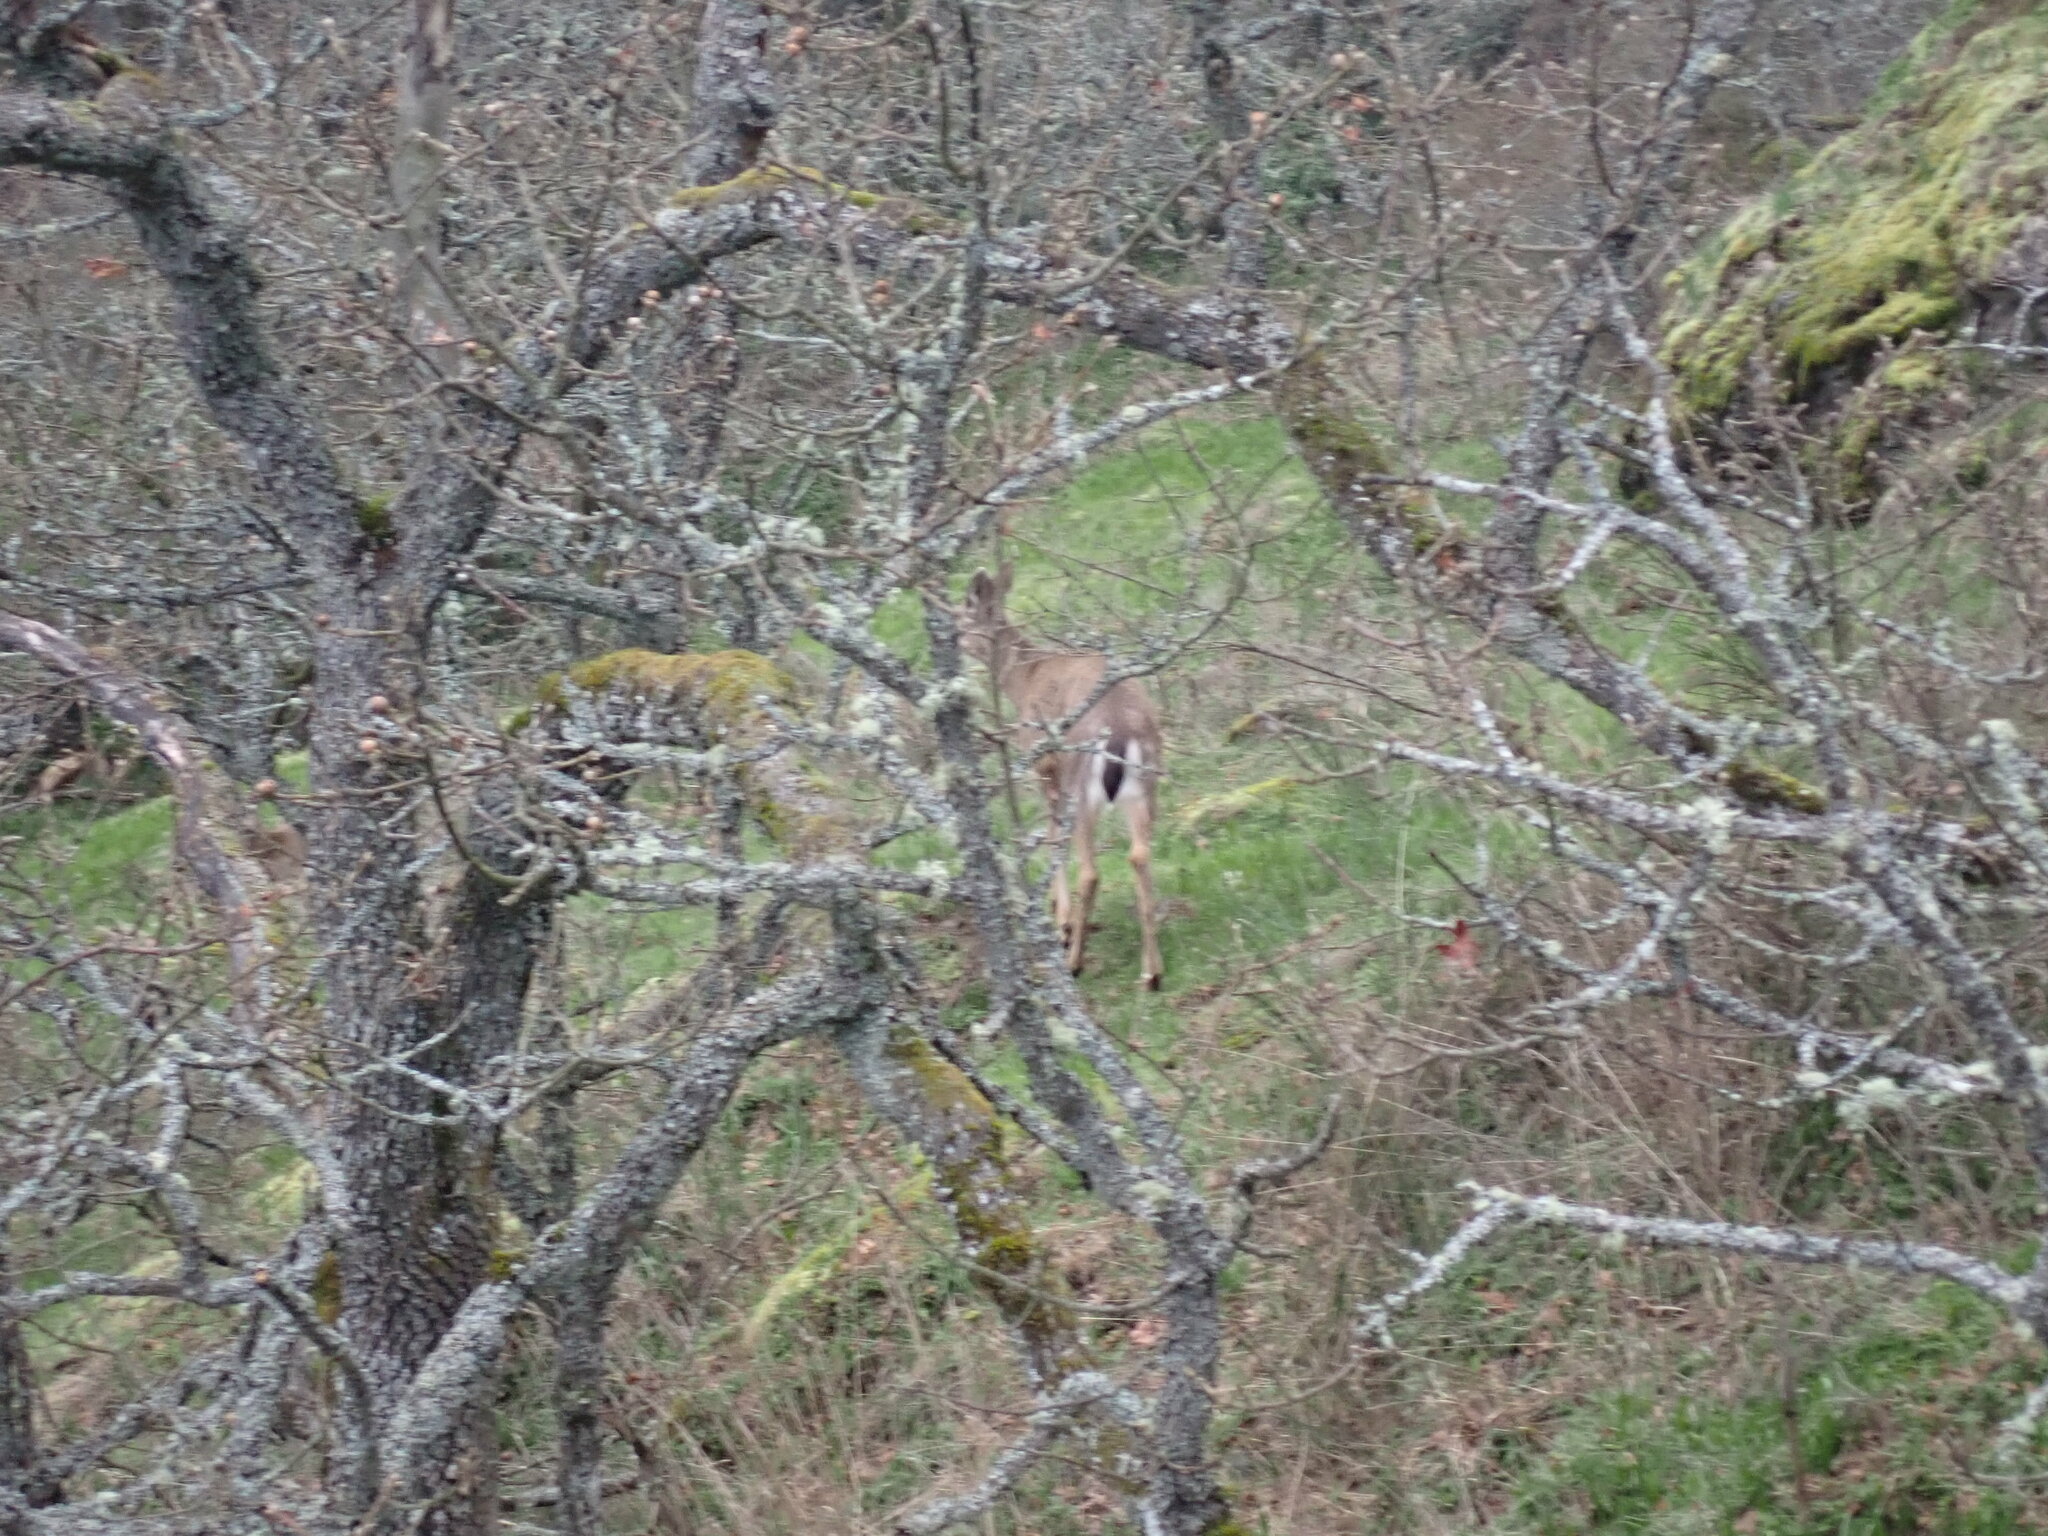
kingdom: Animalia
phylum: Chordata
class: Mammalia
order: Artiodactyla
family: Cervidae
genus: Odocoileus
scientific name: Odocoileus hemionus
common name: Mule deer
